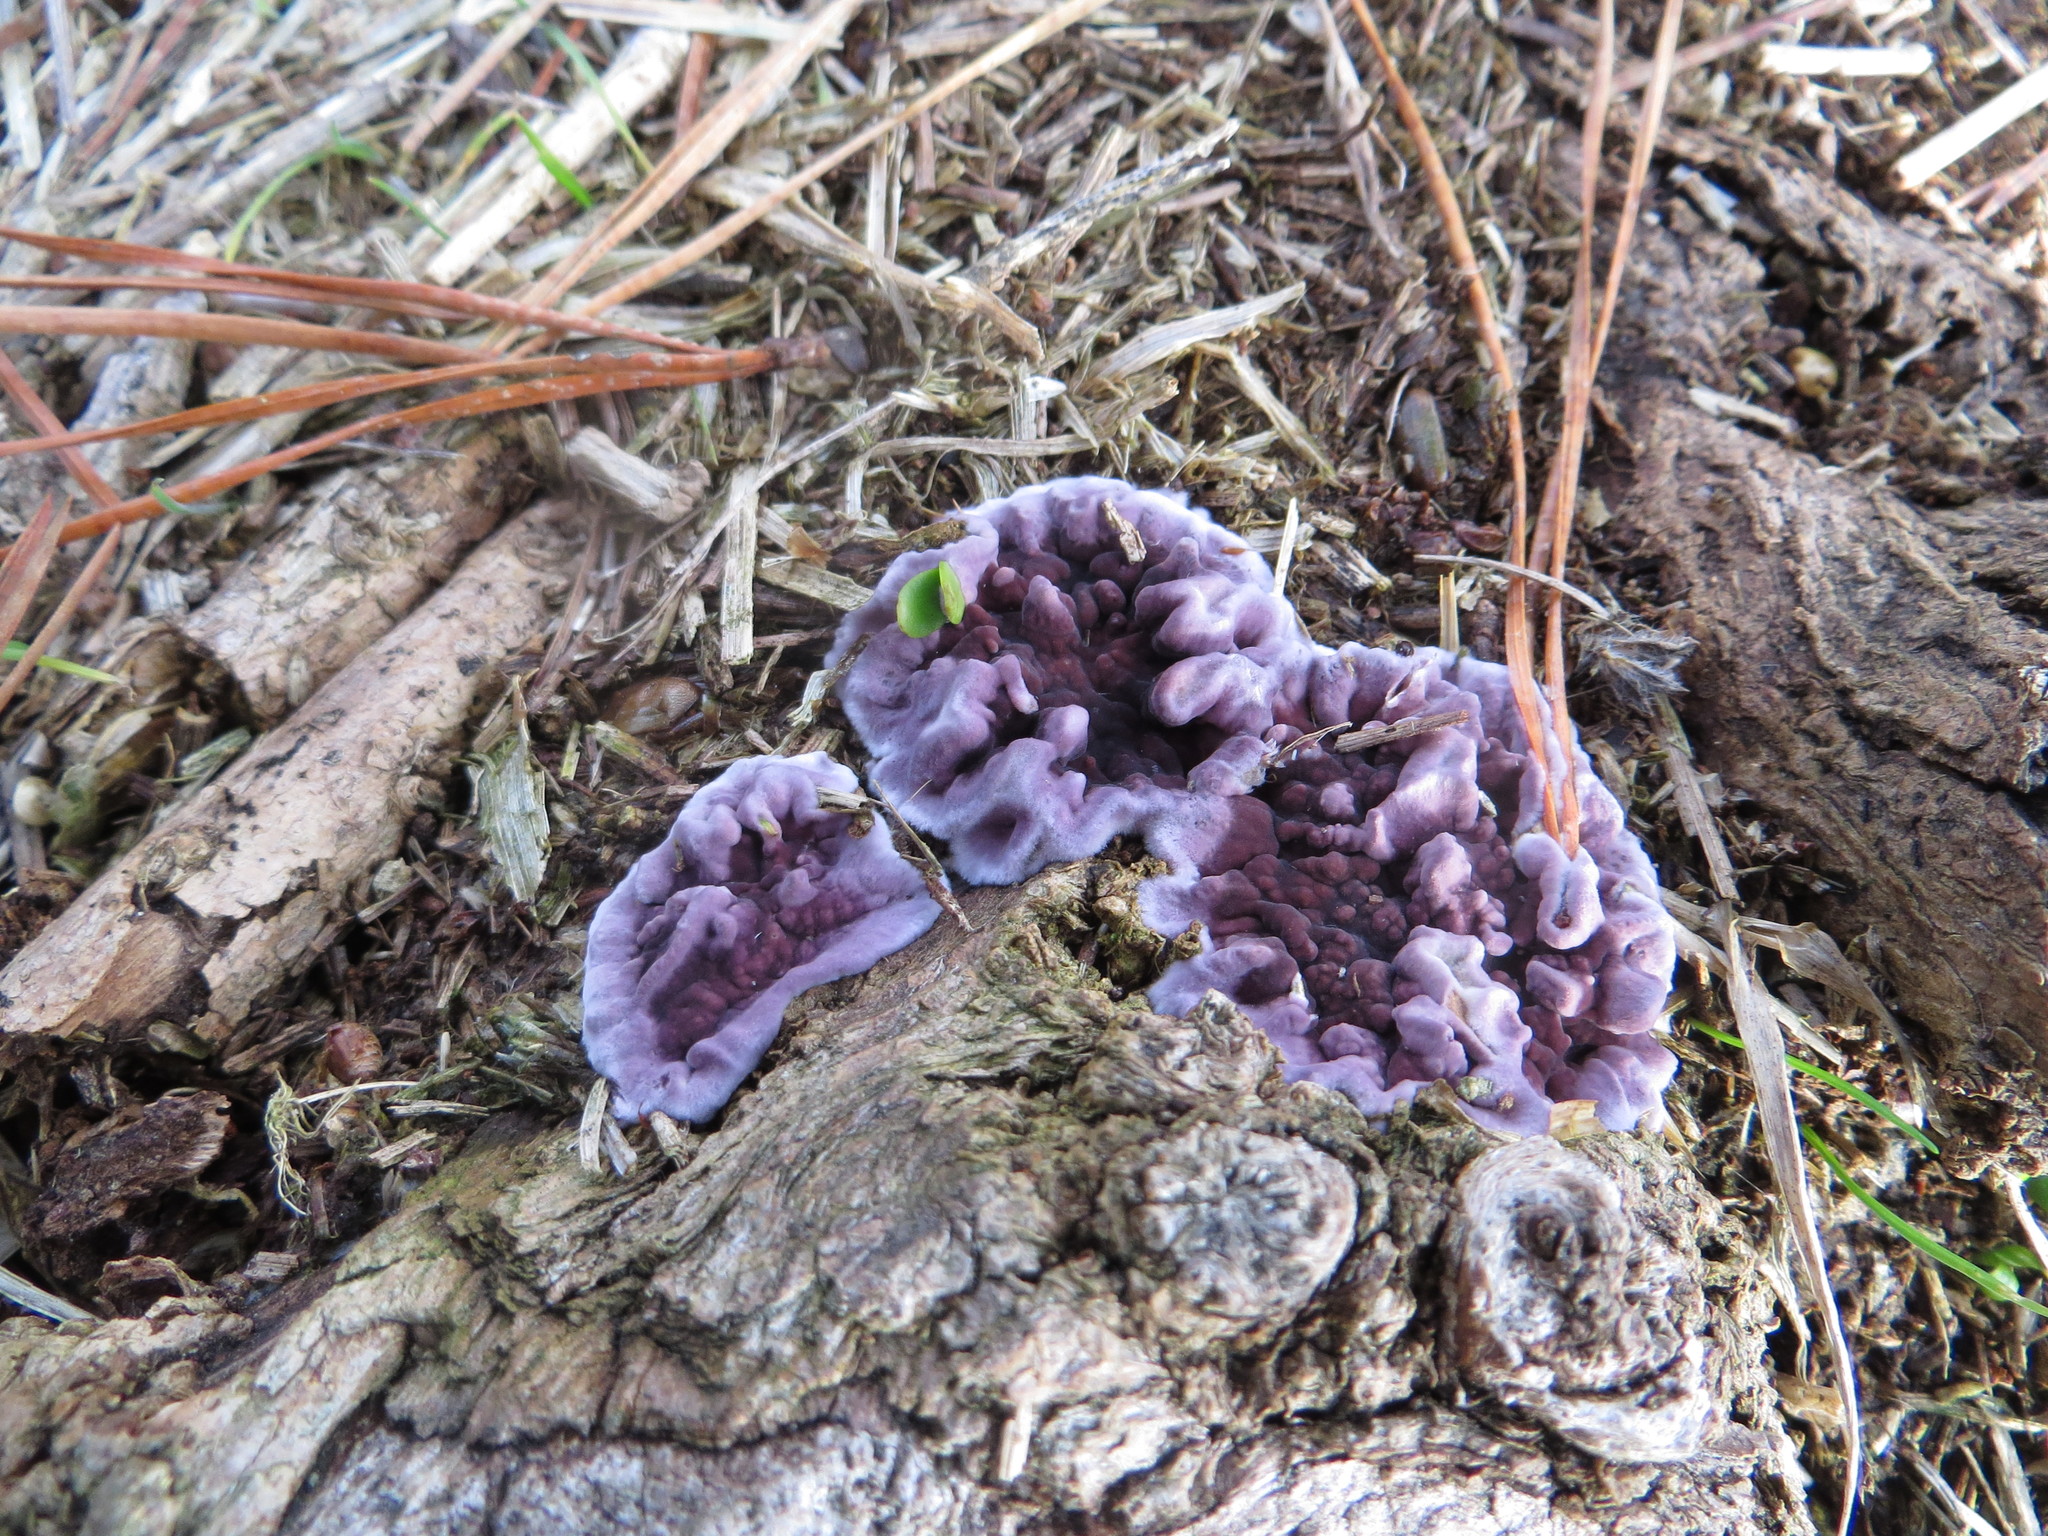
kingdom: Fungi
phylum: Basidiomycota
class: Agaricomycetes
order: Agaricales
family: Cyphellaceae
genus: Chondrostereum
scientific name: Chondrostereum purpureum
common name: Silver leaf disease
